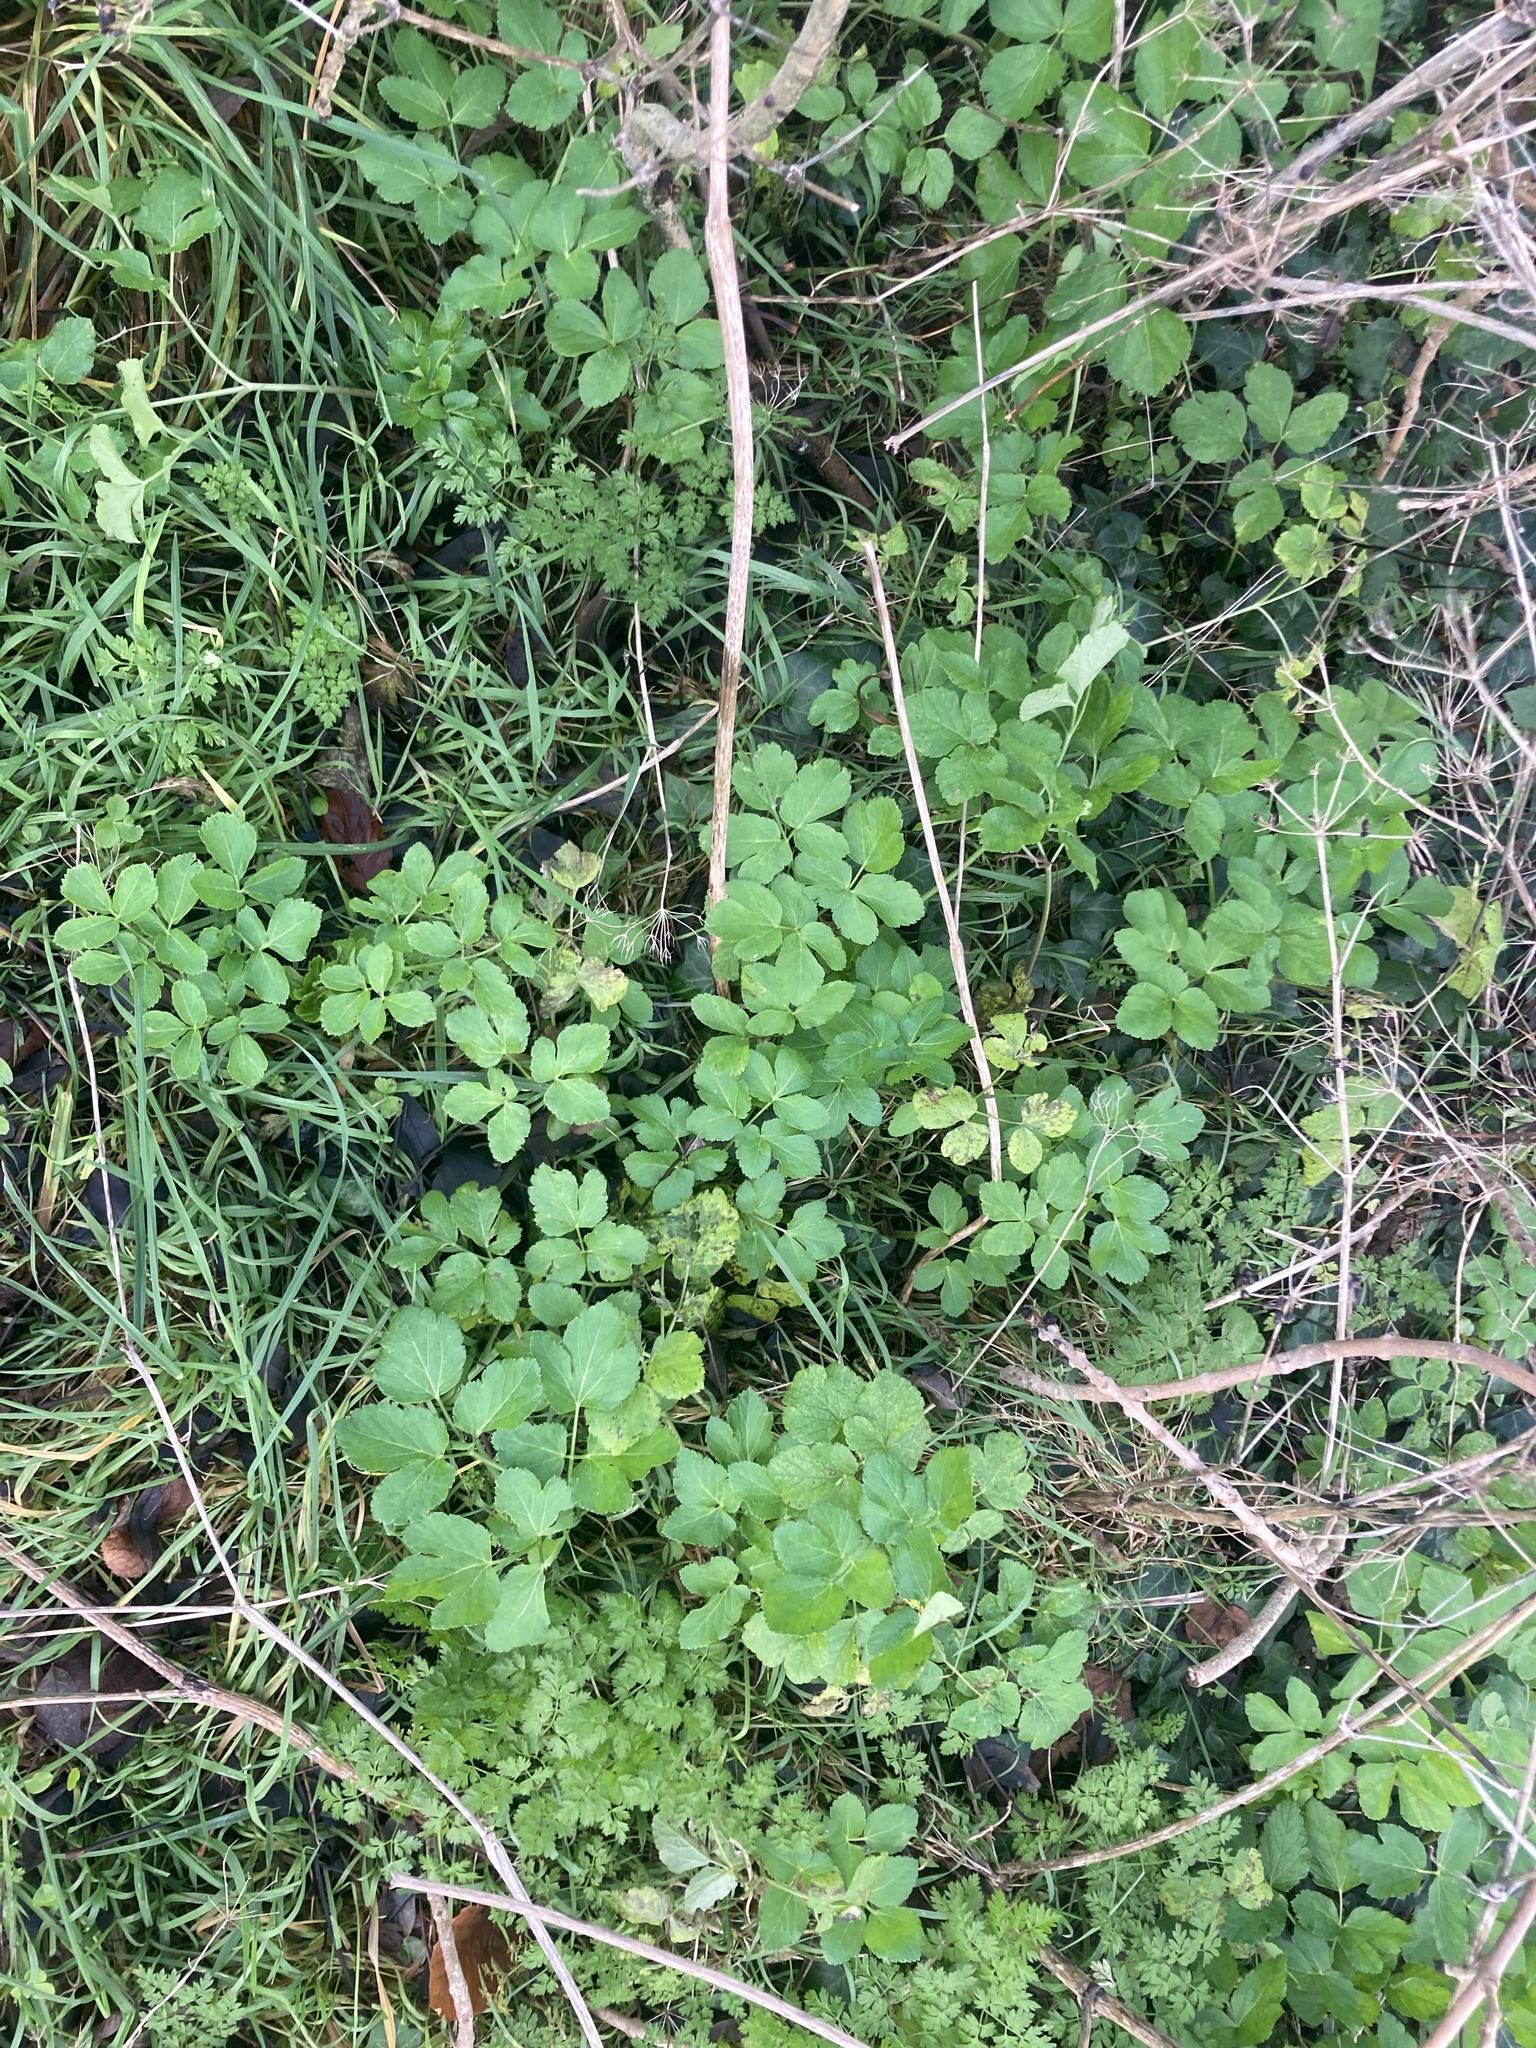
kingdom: Plantae
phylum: Tracheophyta
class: Magnoliopsida
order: Apiales
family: Apiaceae
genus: Smyrnium
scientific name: Smyrnium olusatrum
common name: Alexanders
